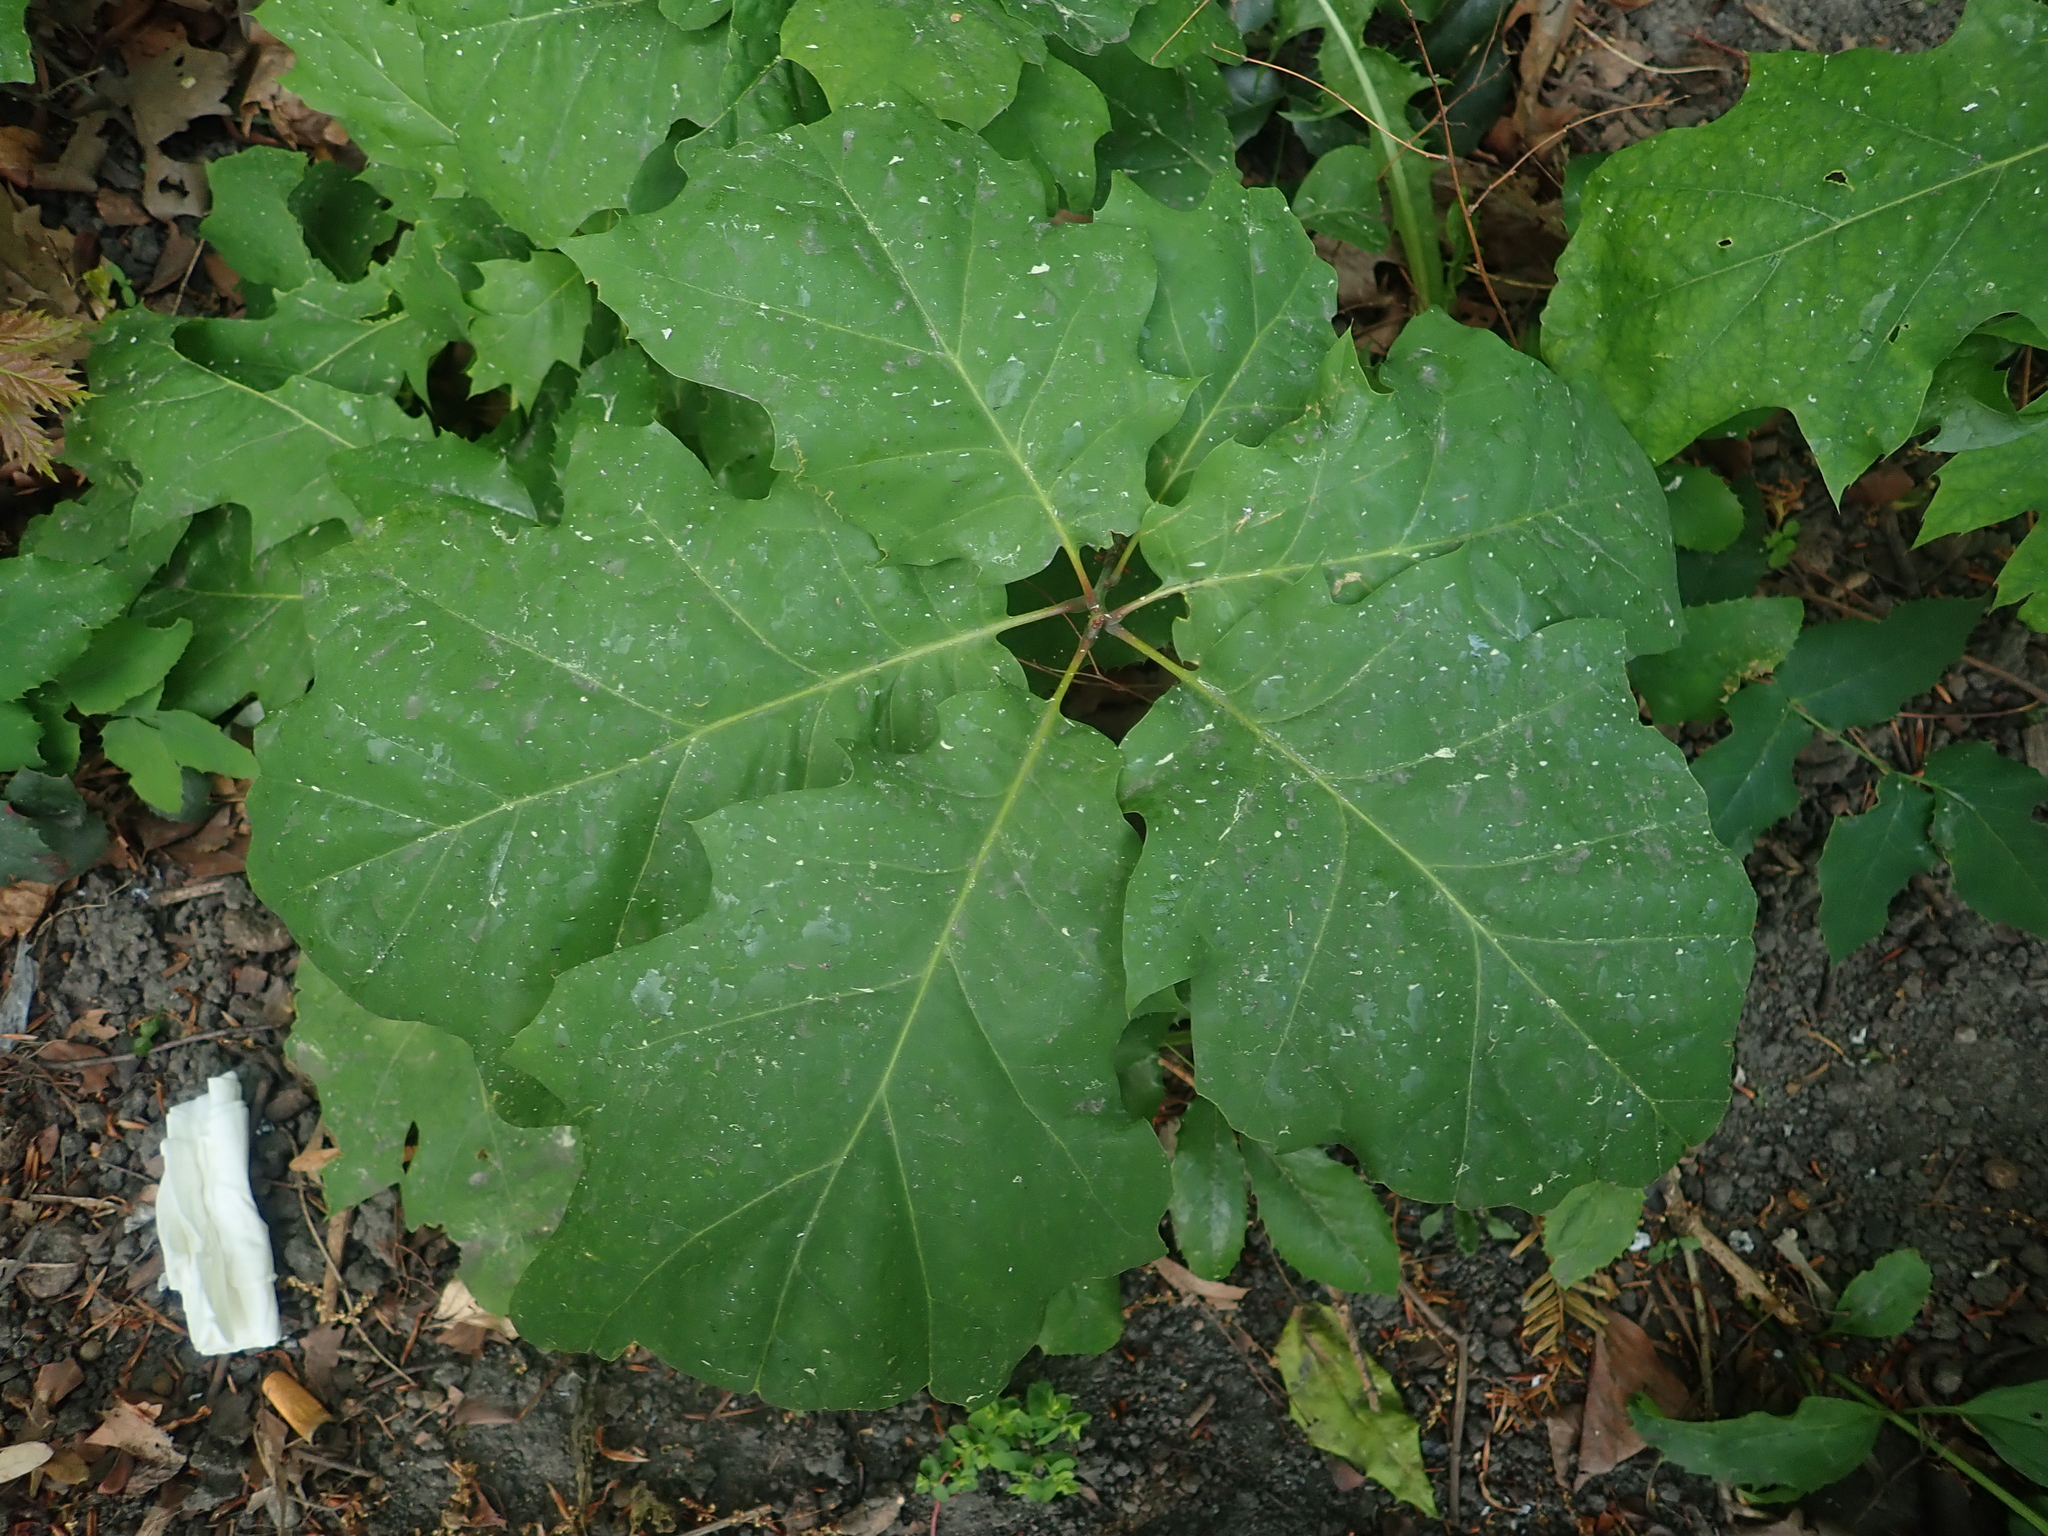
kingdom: Plantae
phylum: Tracheophyta
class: Magnoliopsida
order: Fagales
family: Fagaceae
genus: Quercus
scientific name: Quercus rubra
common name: Red oak
